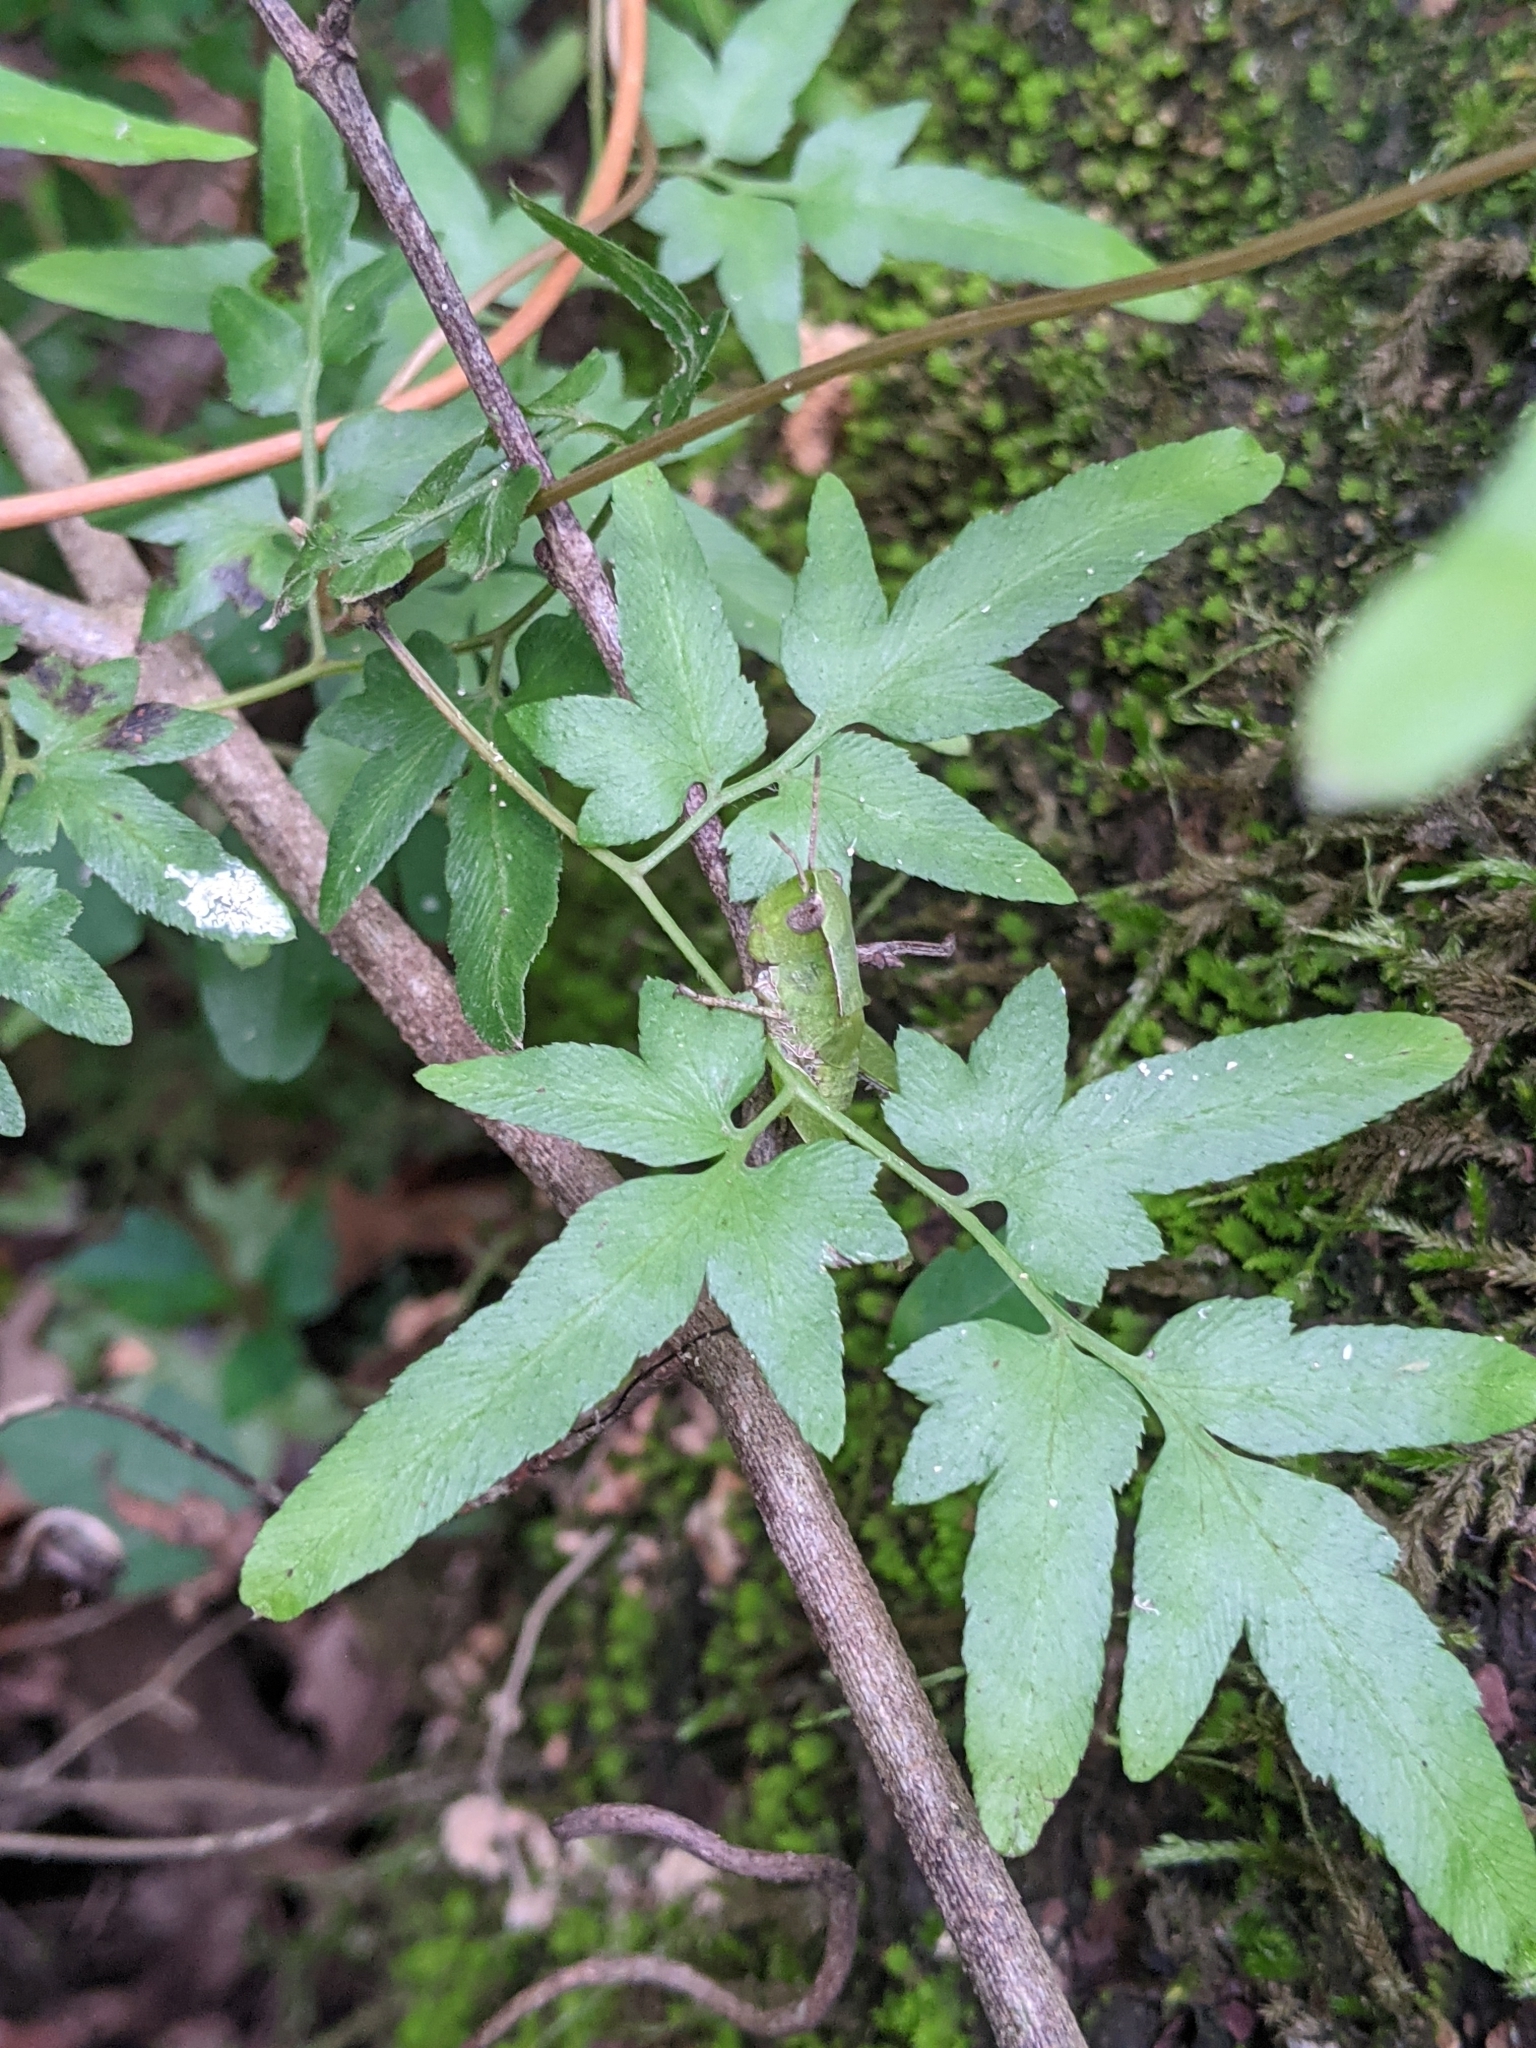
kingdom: Plantae
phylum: Tracheophyta
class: Polypodiopsida
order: Schizaeales
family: Lygodiaceae
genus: Lygodium
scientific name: Lygodium japonicum
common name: Japanese climbing fern
